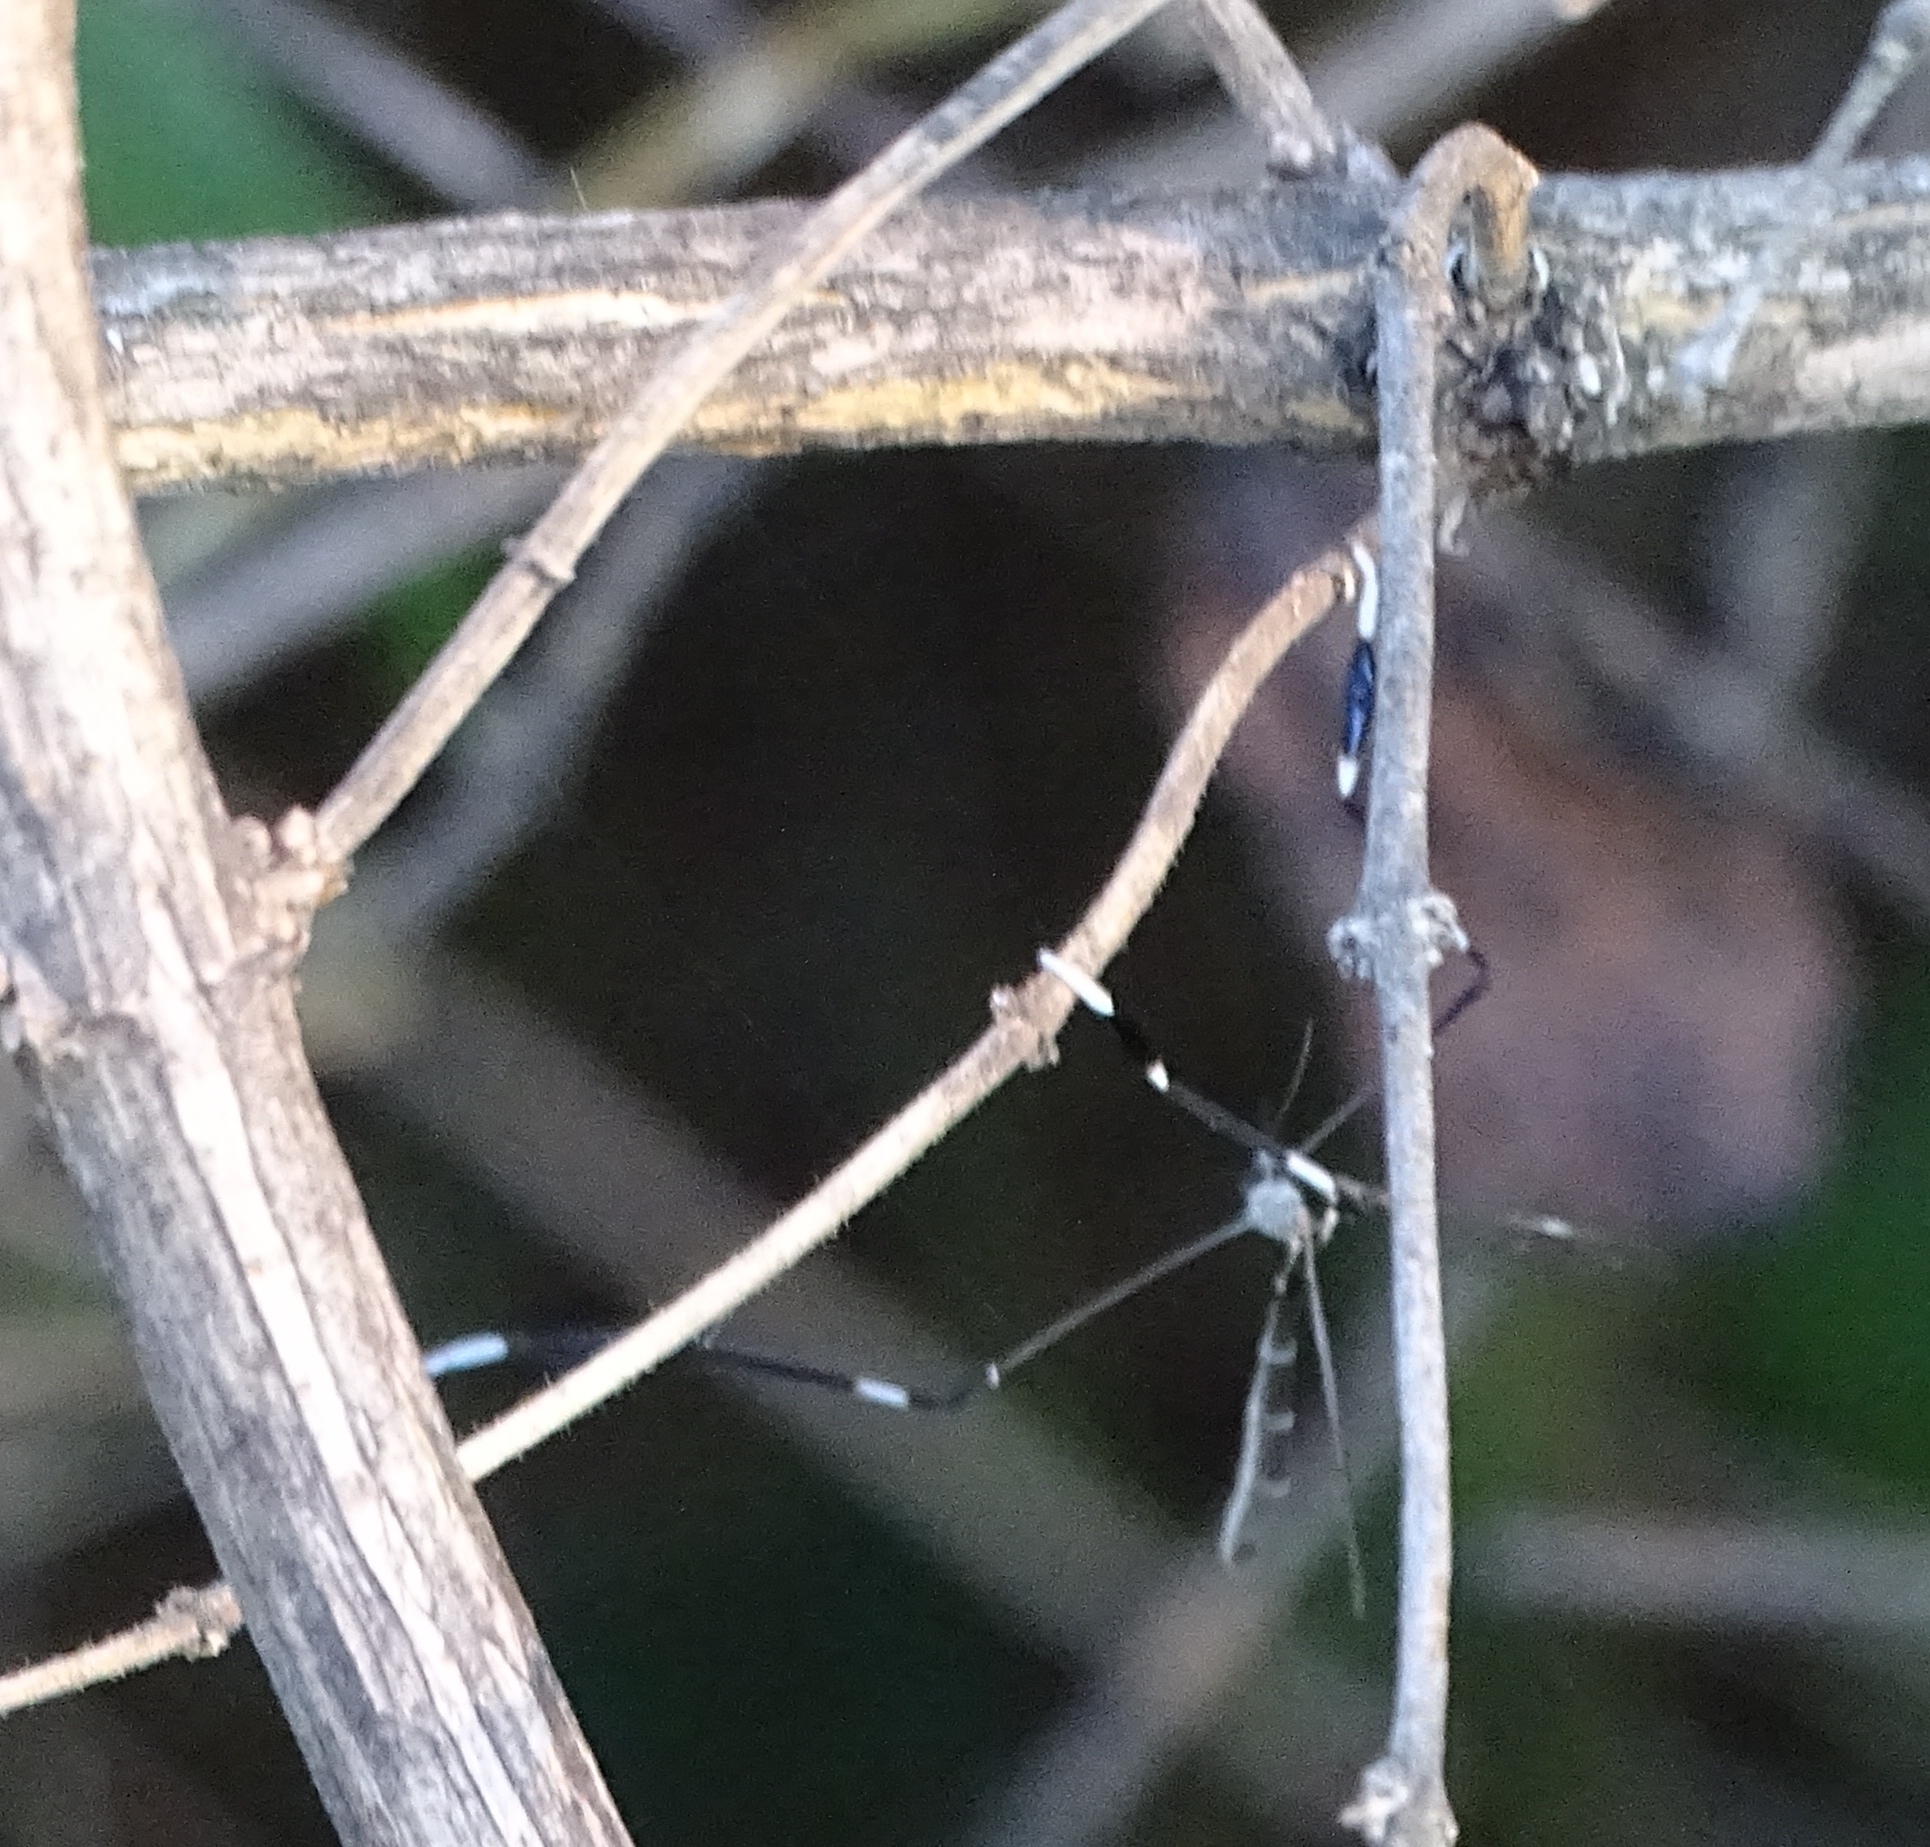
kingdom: Animalia
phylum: Arthropoda
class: Insecta
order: Diptera
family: Ptychopteridae
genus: Bittacomorpha
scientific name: Bittacomorpha clavipes
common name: Eastern phantom crane fly
